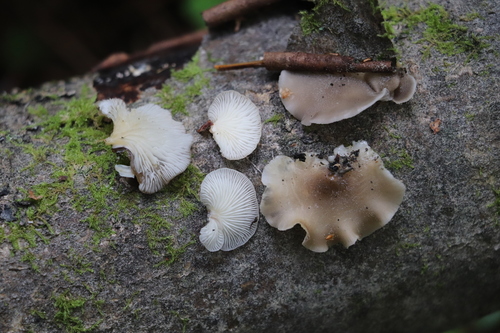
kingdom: Fungi
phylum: Basidiomycota
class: Agaricomycetes
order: Agaricales
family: Crepidotaceae
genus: Crepidotus
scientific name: Crepidotus mollis
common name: Peeling oysterling
